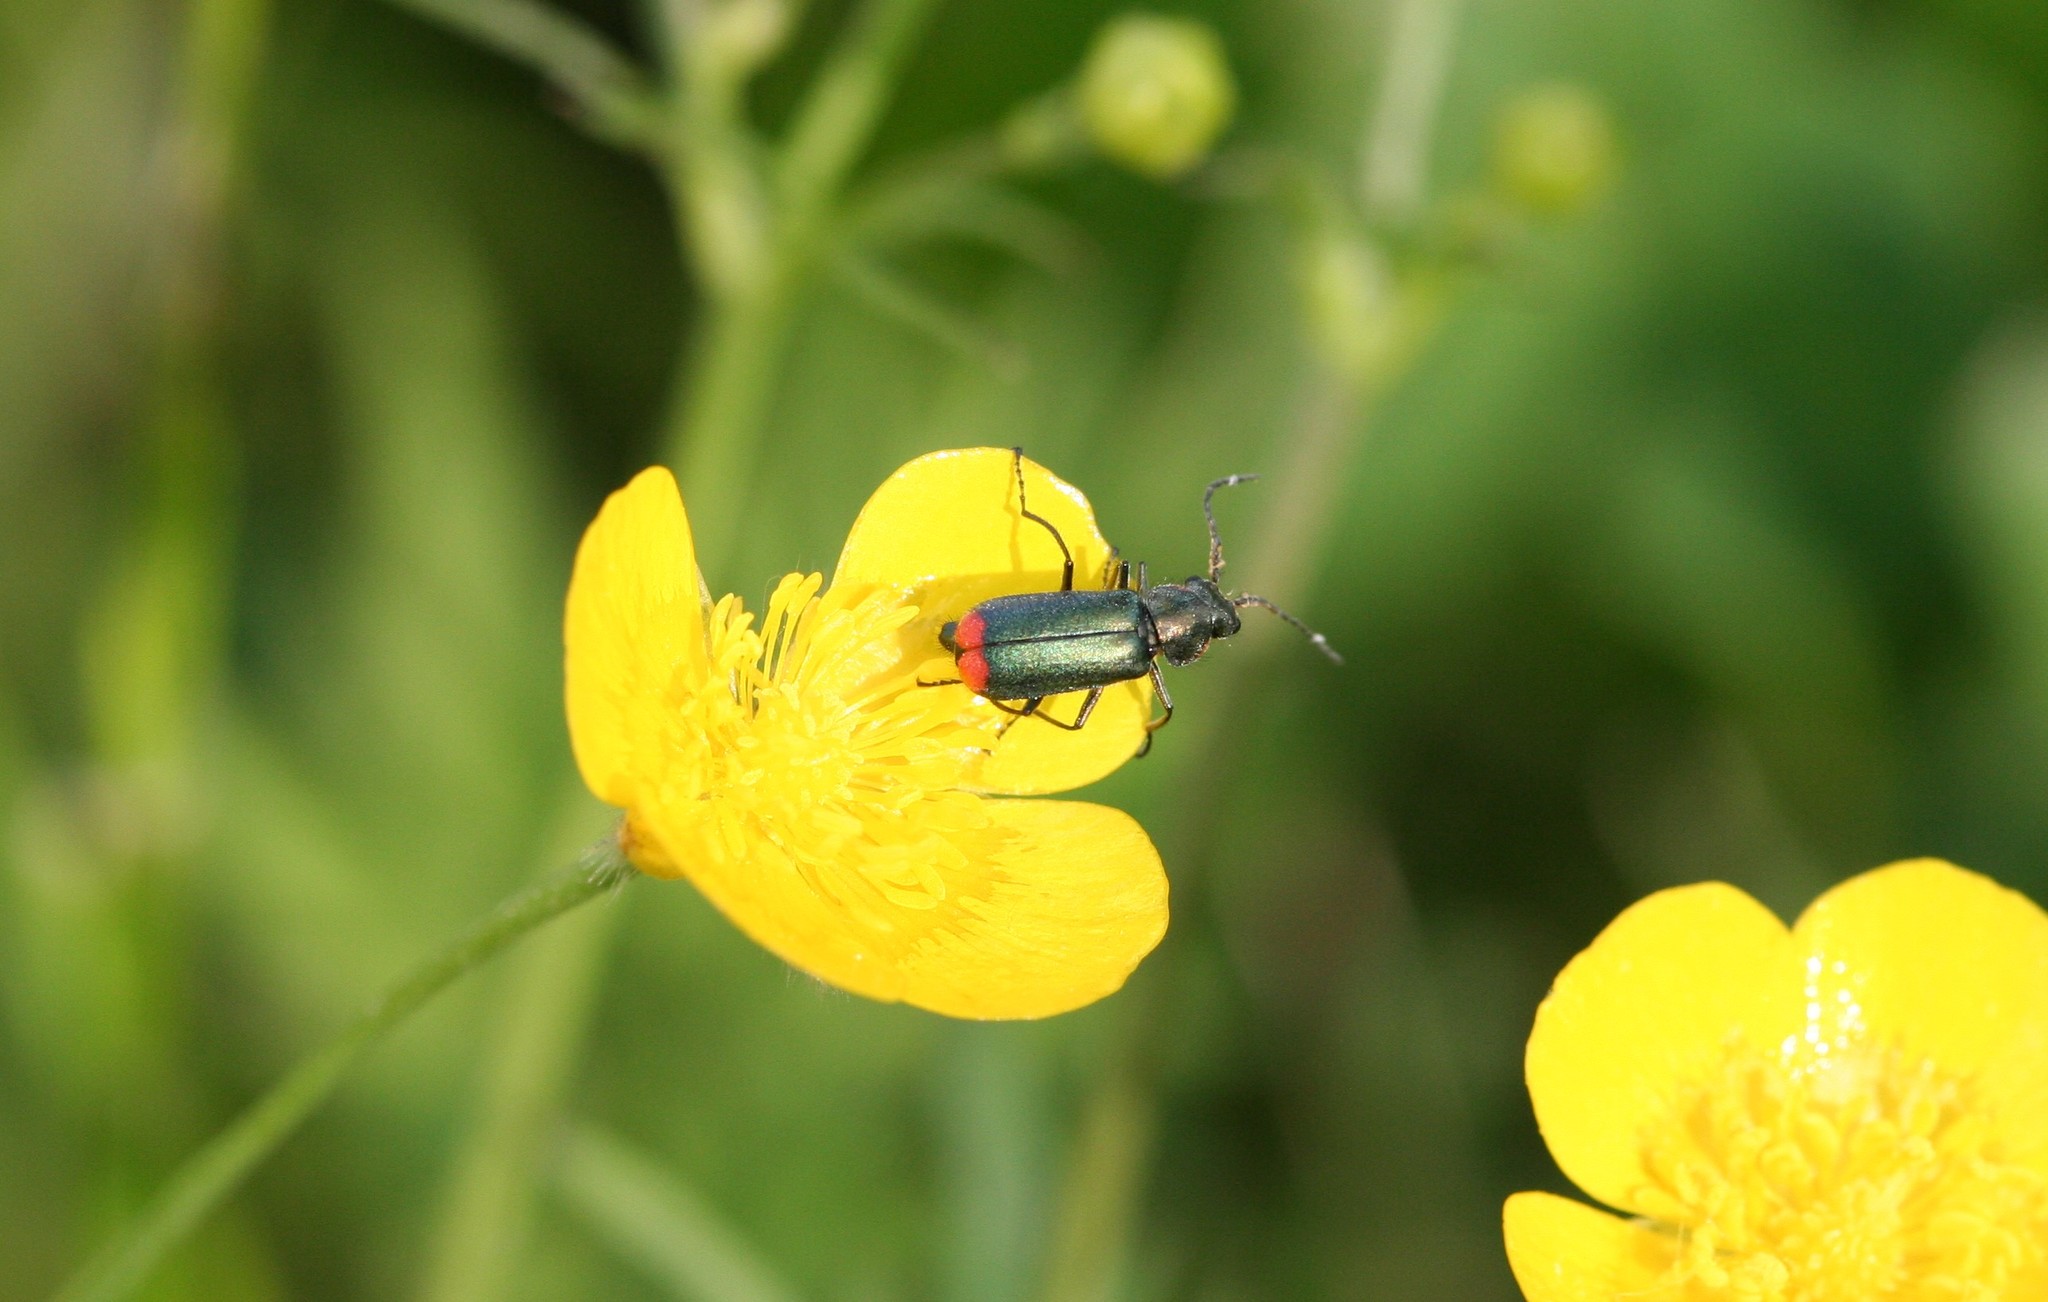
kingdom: Animalia
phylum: Arthropoda
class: Insecta
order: Coleoptera
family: Melyridae
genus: Malachius
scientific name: Malachius bipustulatus
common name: Malachite beetle
